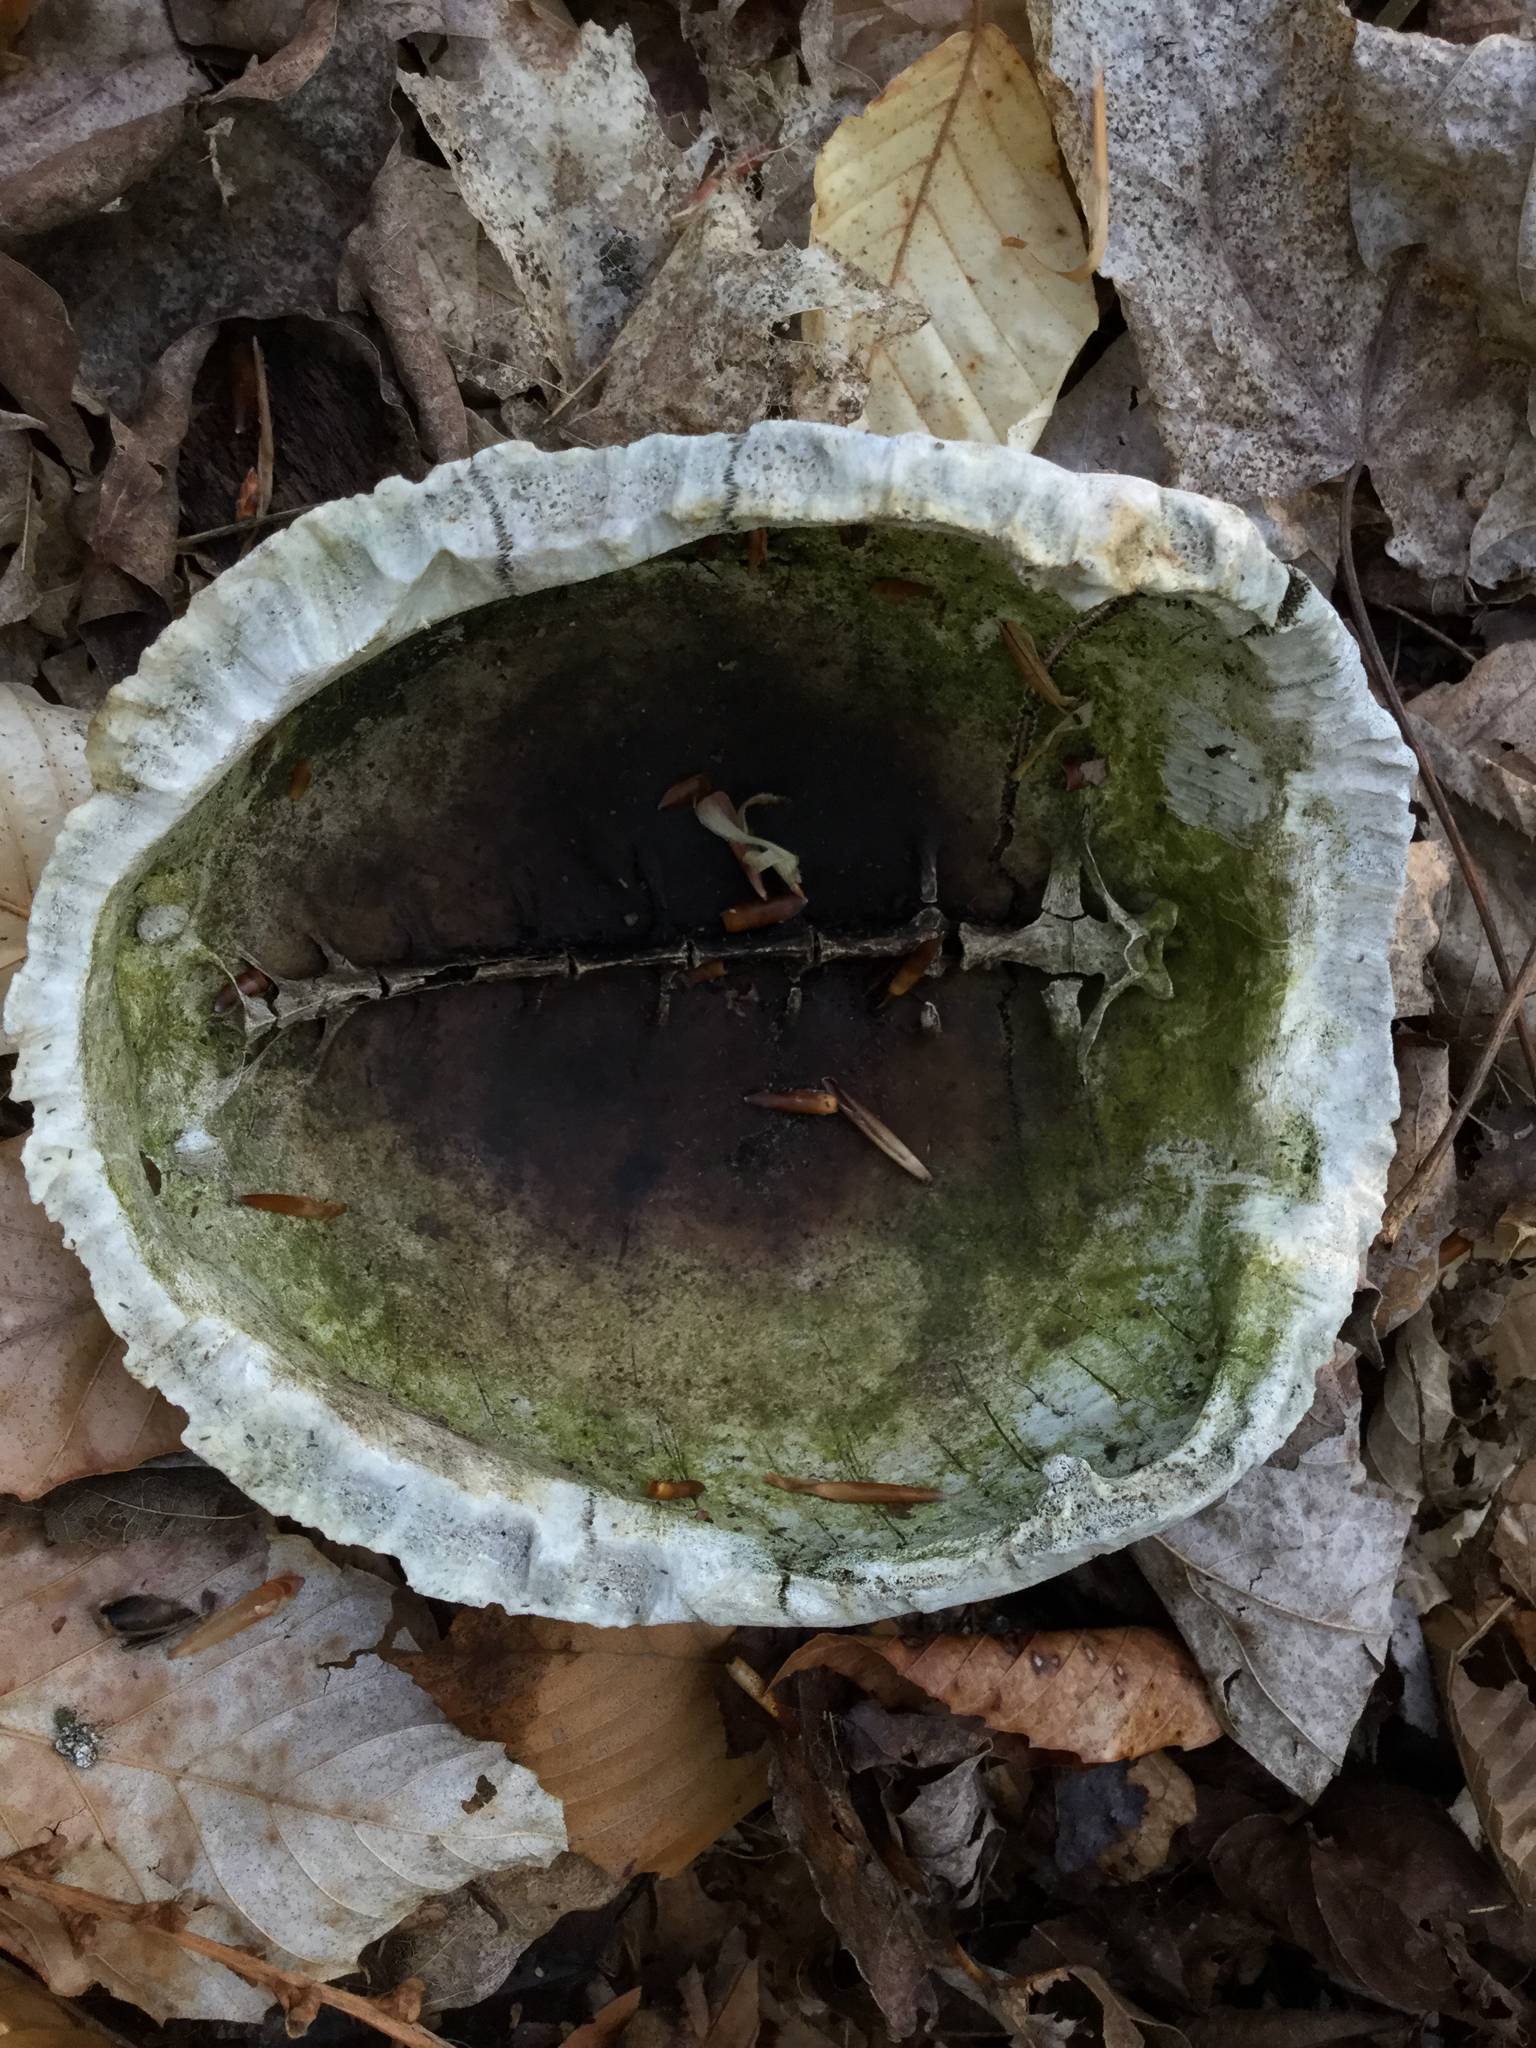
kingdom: Animalia
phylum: Chordata
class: Testudines
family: Emydidae
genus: Terrapene
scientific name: Terrapene carolina
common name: Common box turtle
